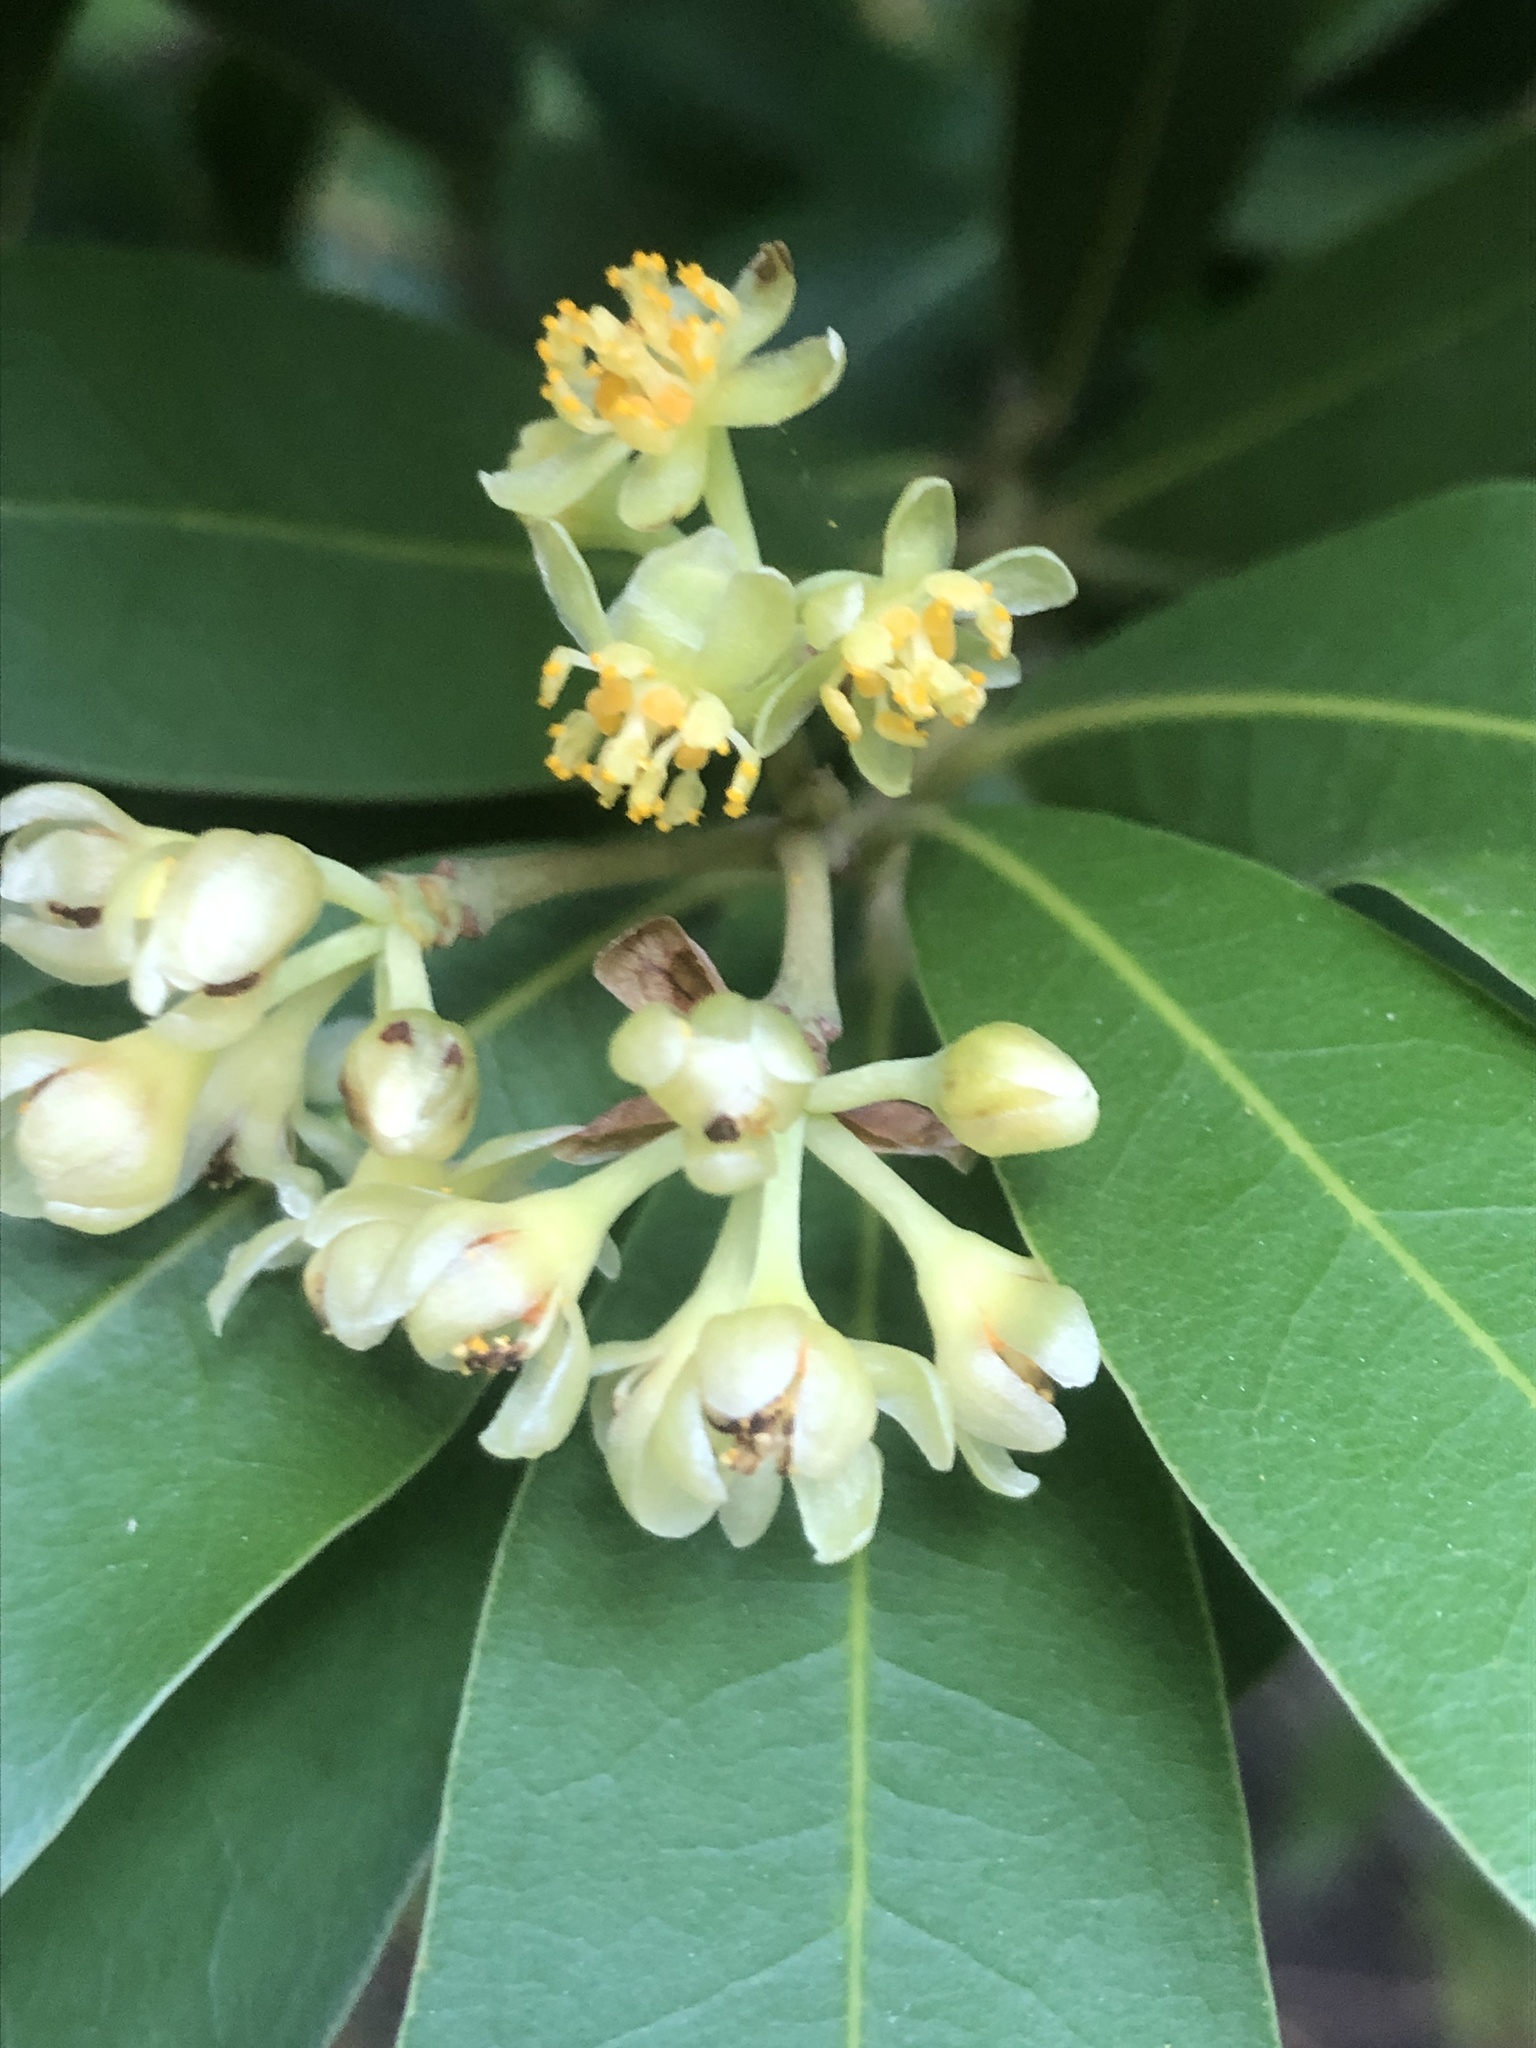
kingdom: Plantae
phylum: Tracheophyta
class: Magnoliopsida
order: Laurales
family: Lauraceae
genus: Umbellularia
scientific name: Umbellularia californica
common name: California bay
